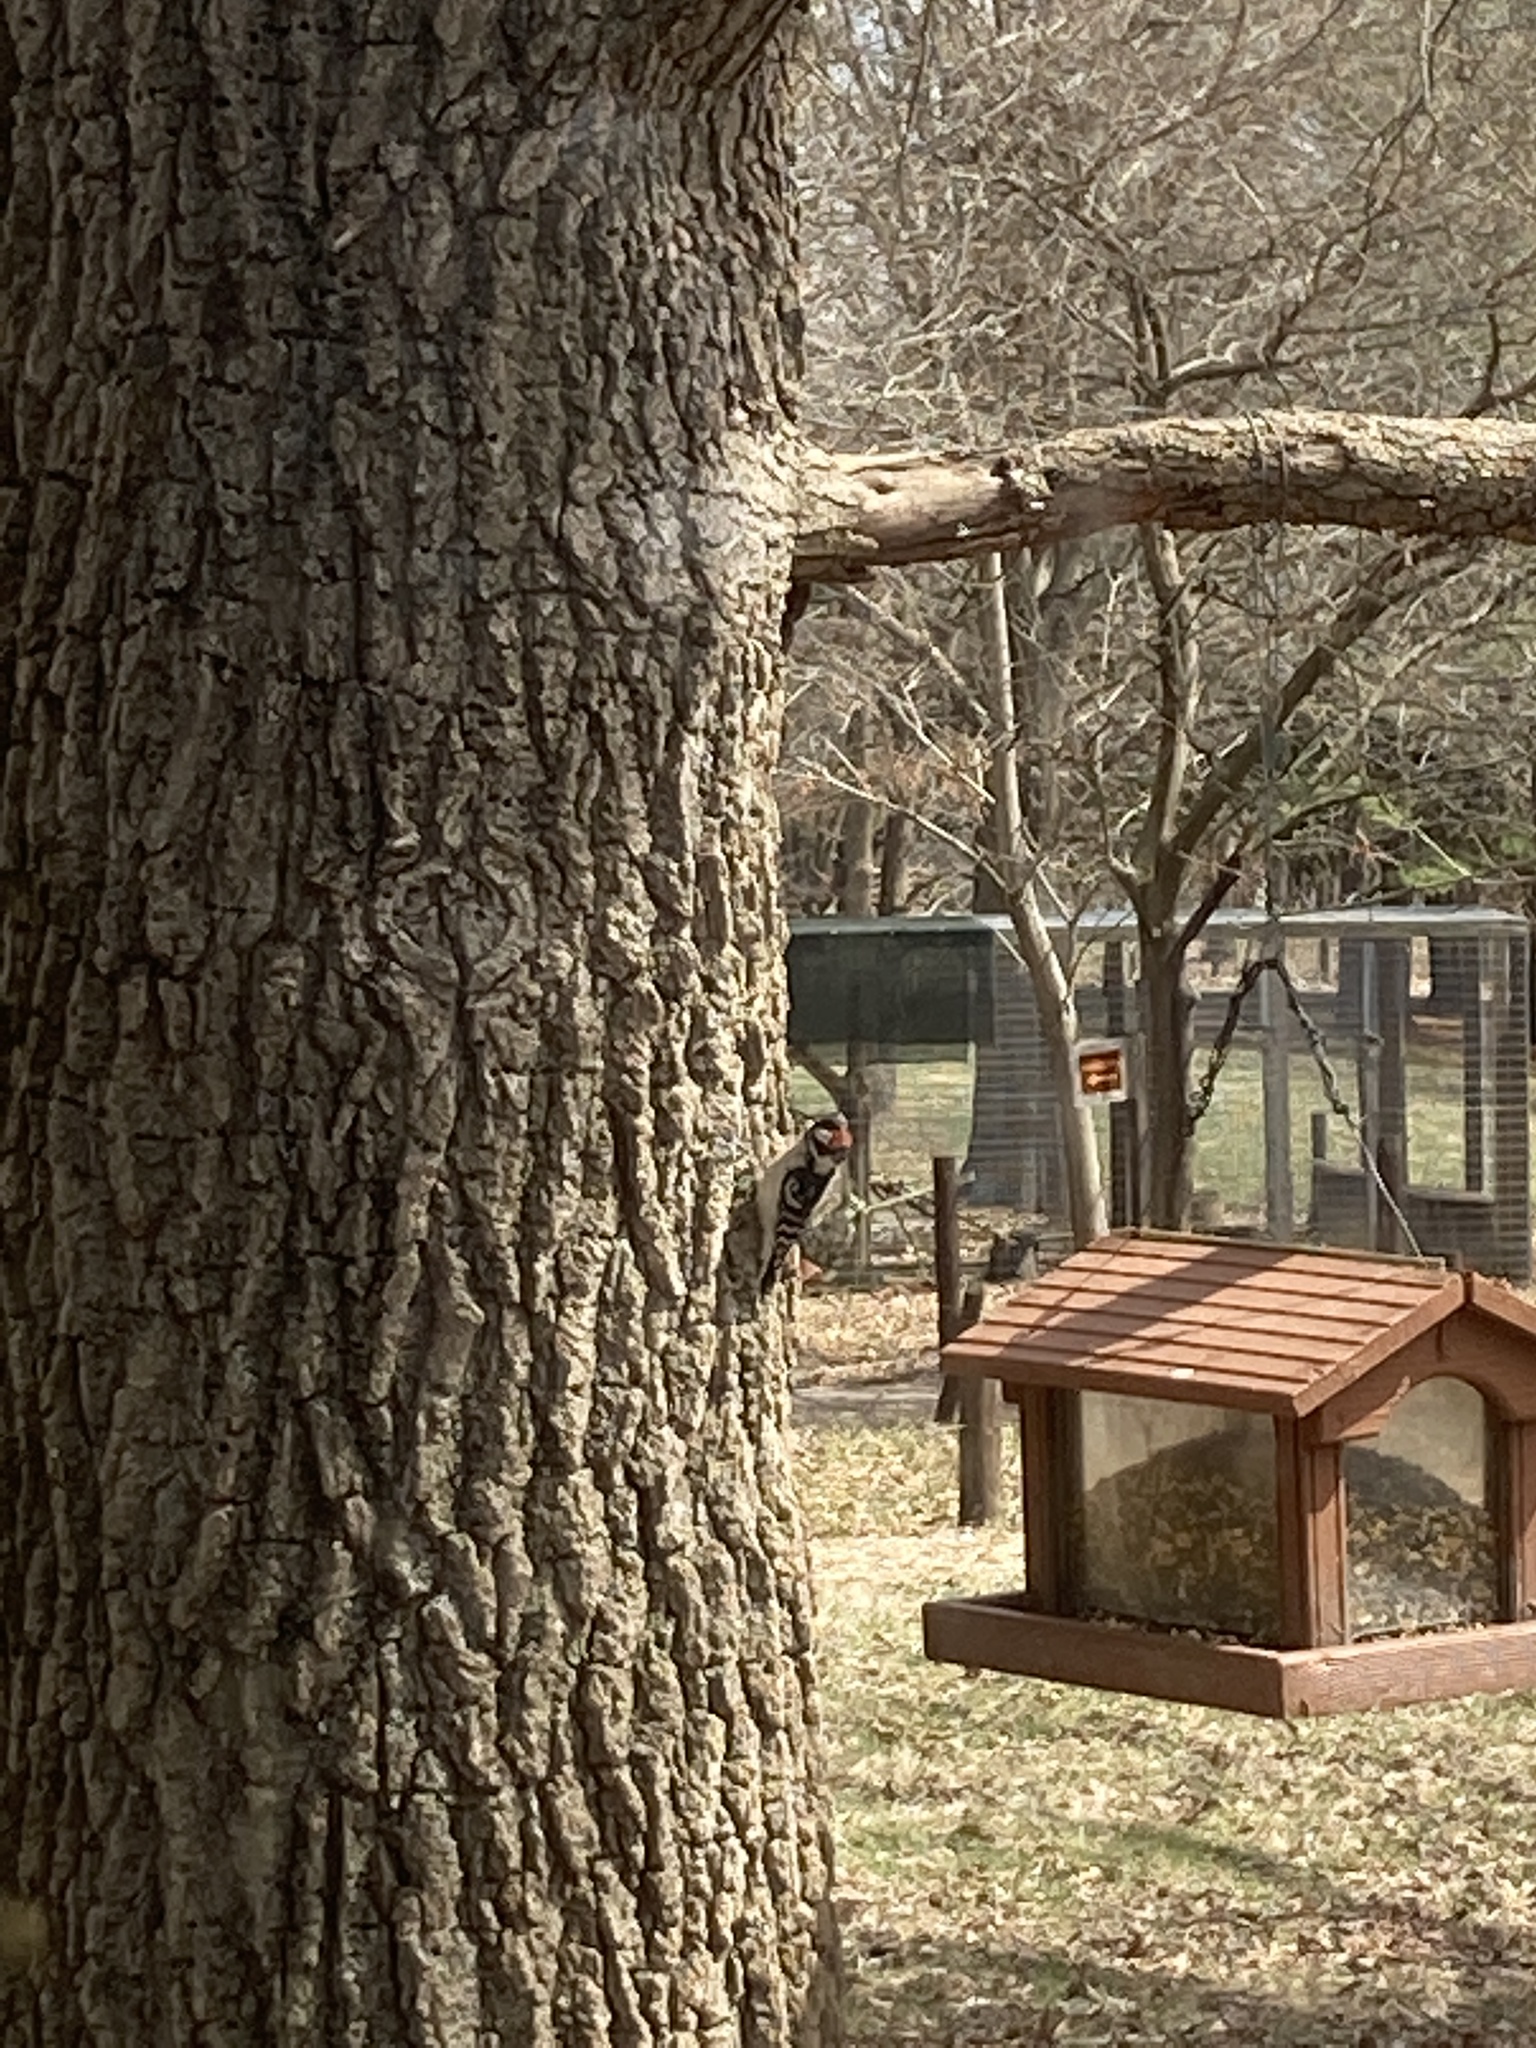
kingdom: Animalia
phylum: Chordata
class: Aves
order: Piciformes
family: Picidae
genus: Dryobates
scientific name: Dryobates pubescens
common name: Downy woodpecker
